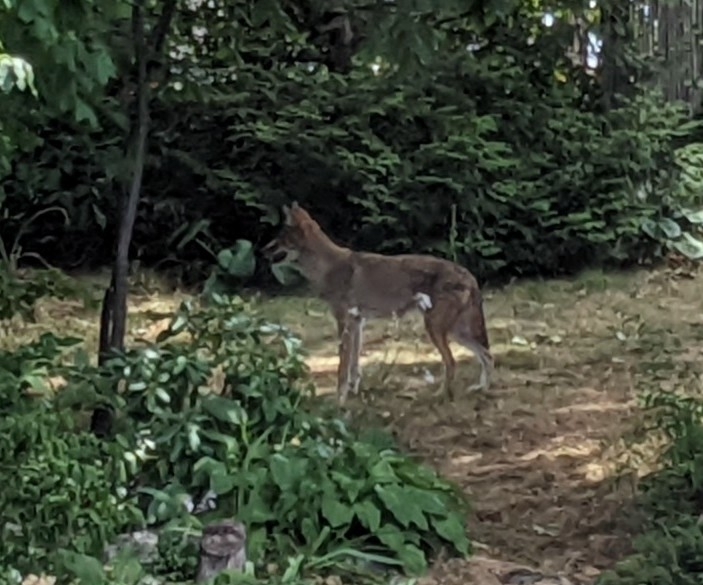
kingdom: Animalia
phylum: Chordata
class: Mammalia
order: Carnivora
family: Canidae
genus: Canis
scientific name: Canis latrans
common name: Coyote
